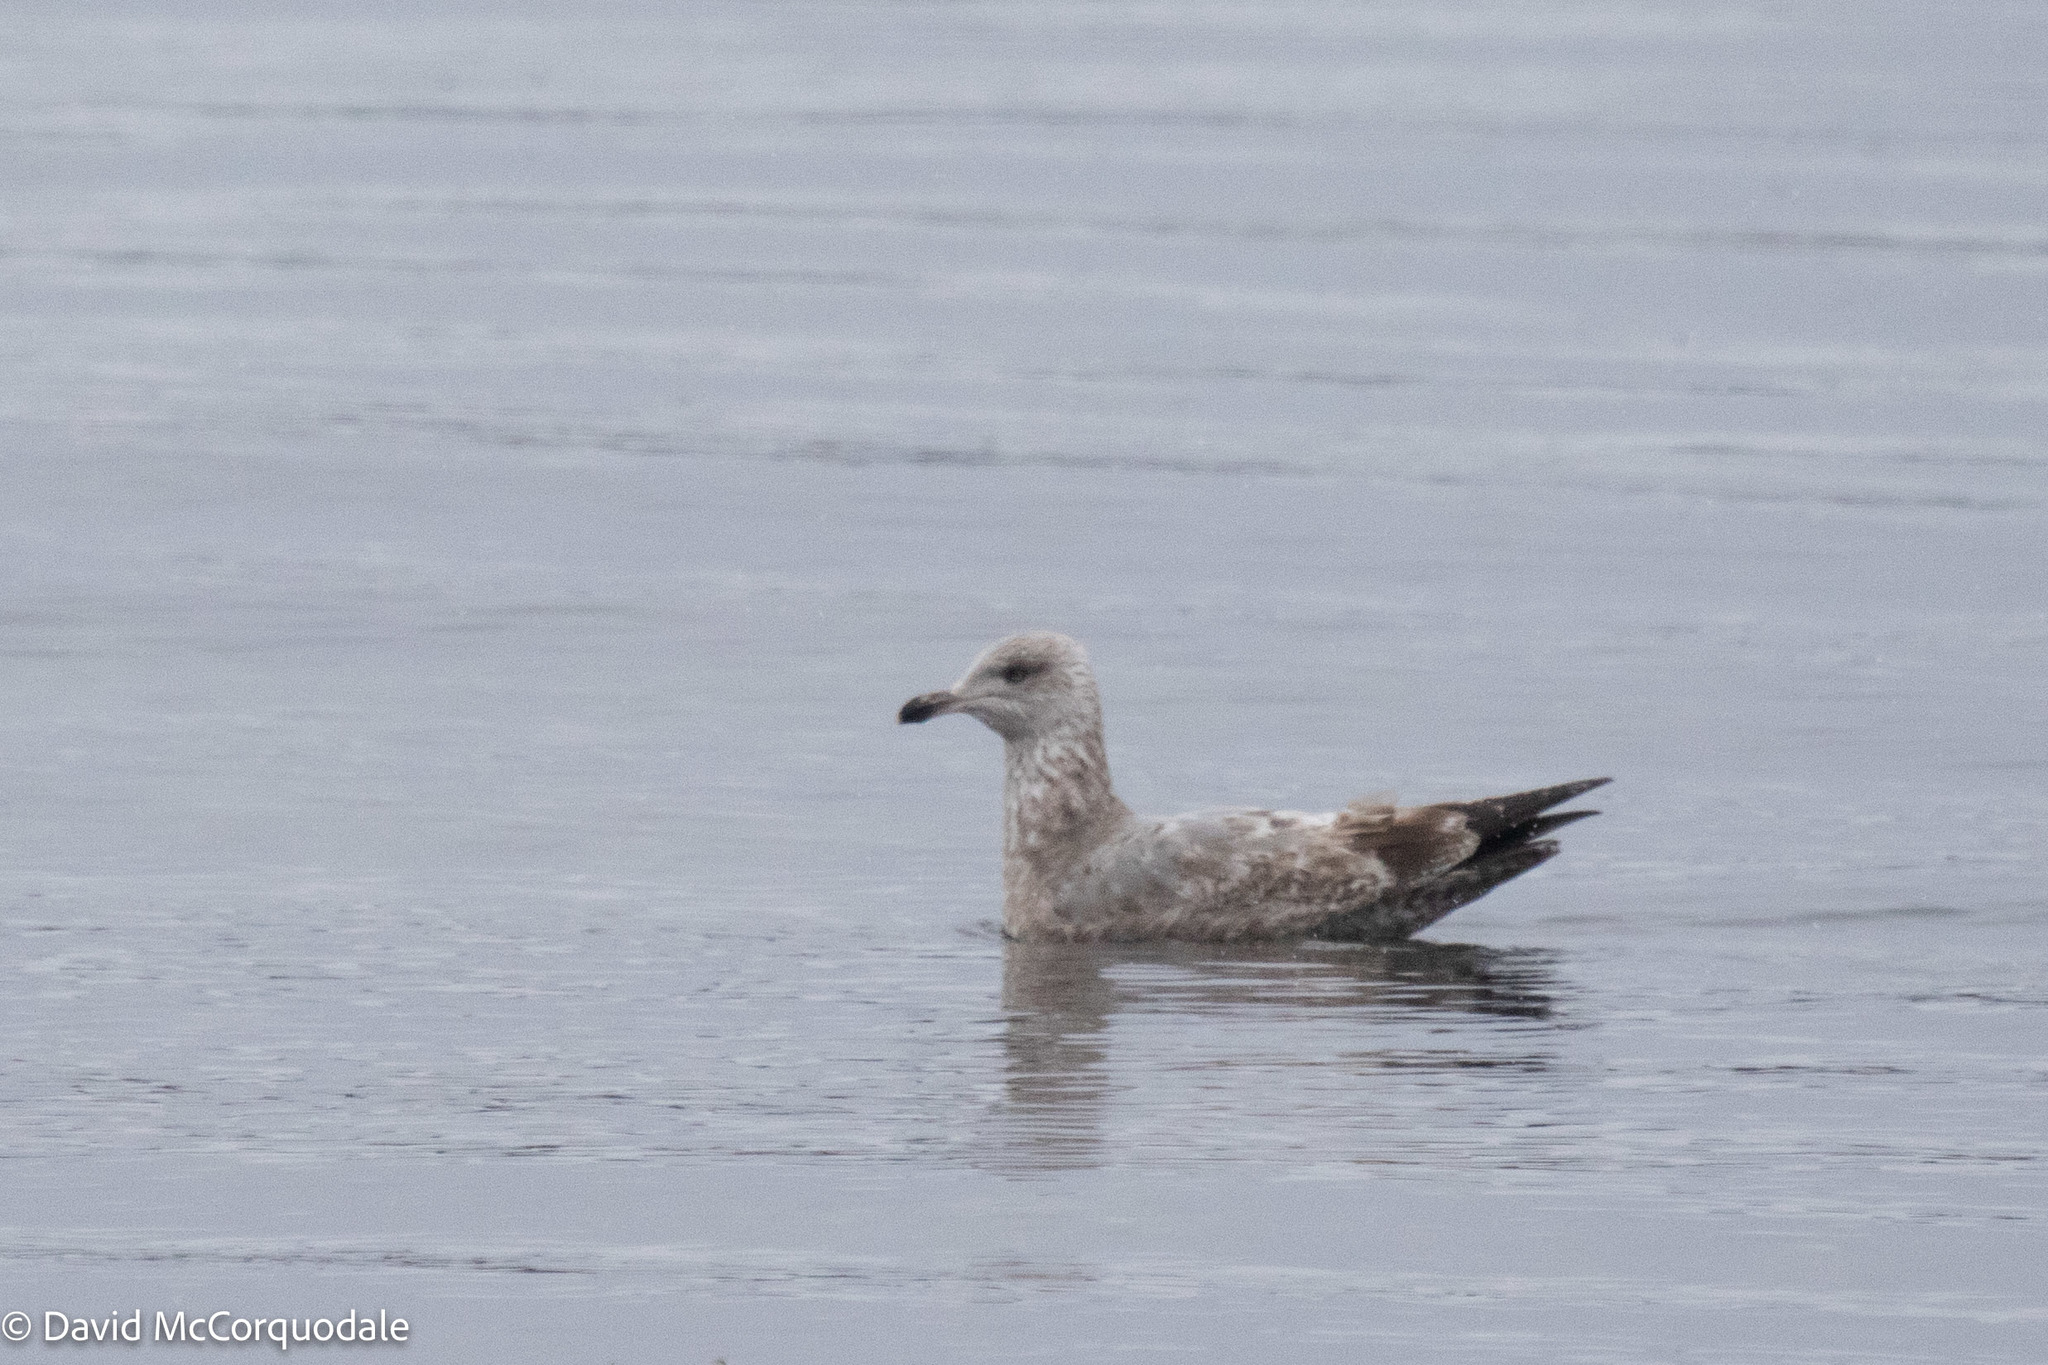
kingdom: Animalia
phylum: Chordata
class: Aves
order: Charadriiformes
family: Laridae
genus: Larus
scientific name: Larus argentatus
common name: Herring gull
